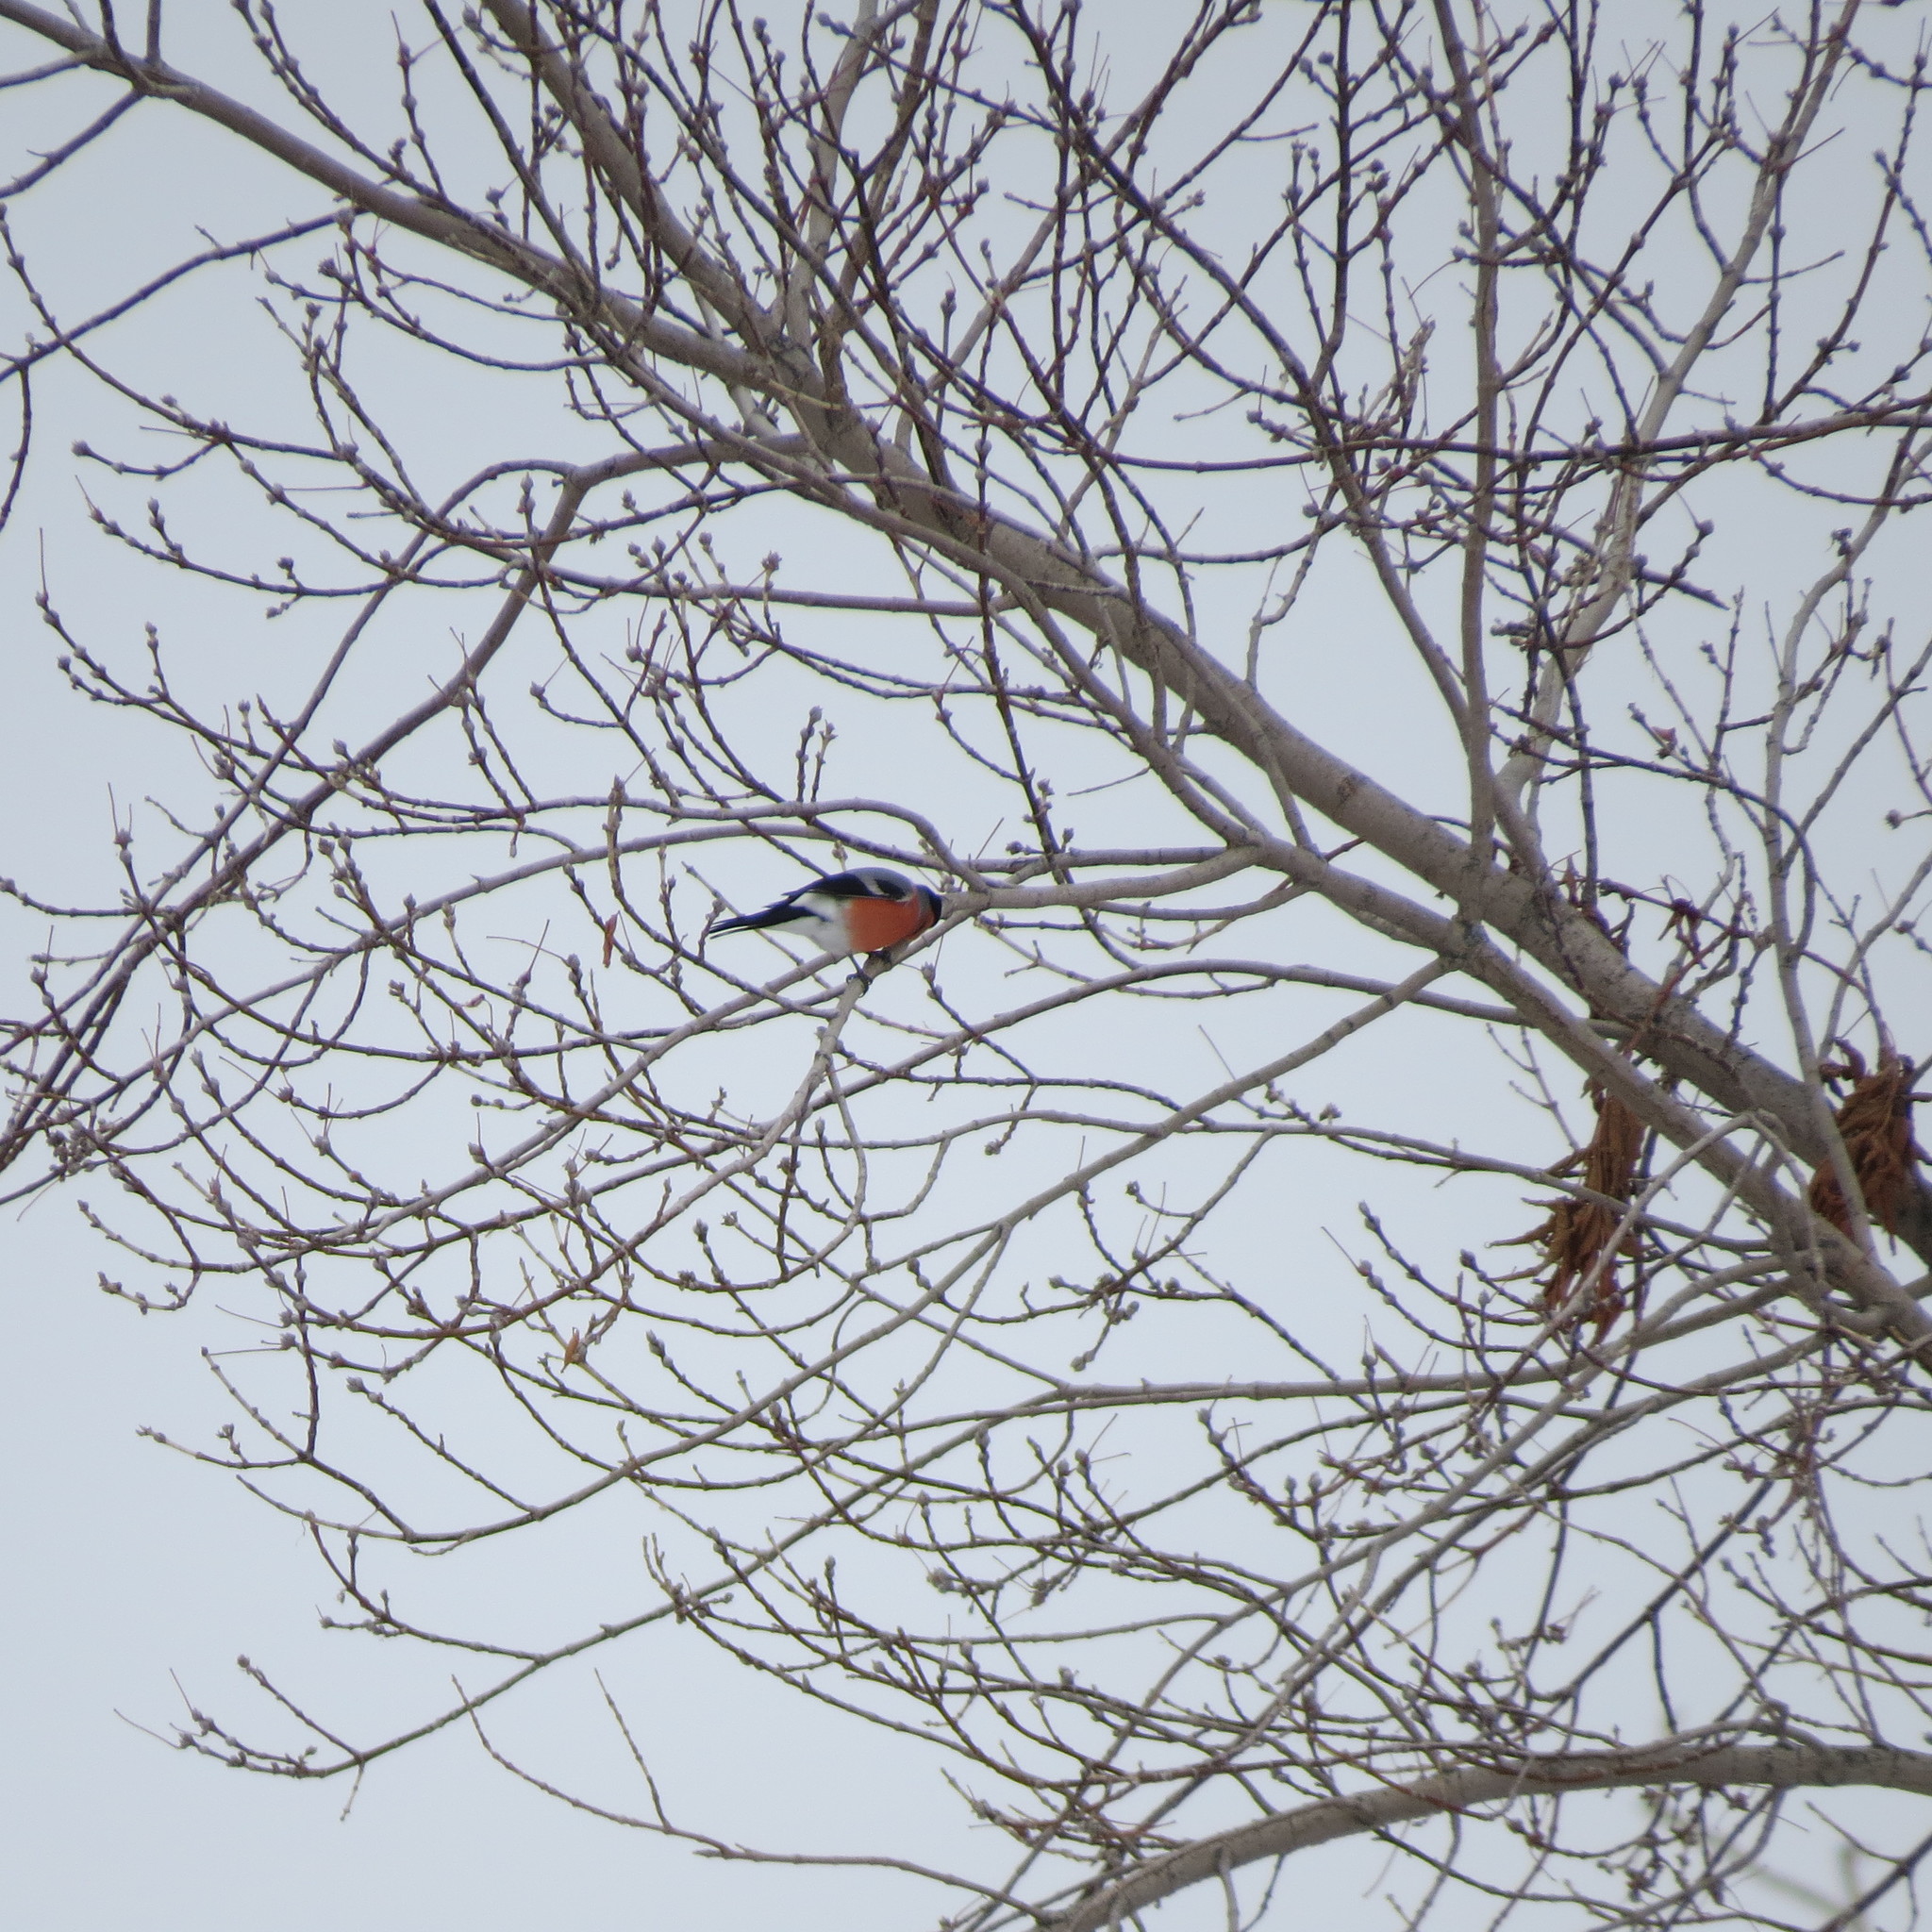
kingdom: Animalia
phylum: Chordata
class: Aves
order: Passeriformes
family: Fringillidae
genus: Pyrrhula
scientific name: Pyrrhula pyrrhula
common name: Eurasian bullfinch
